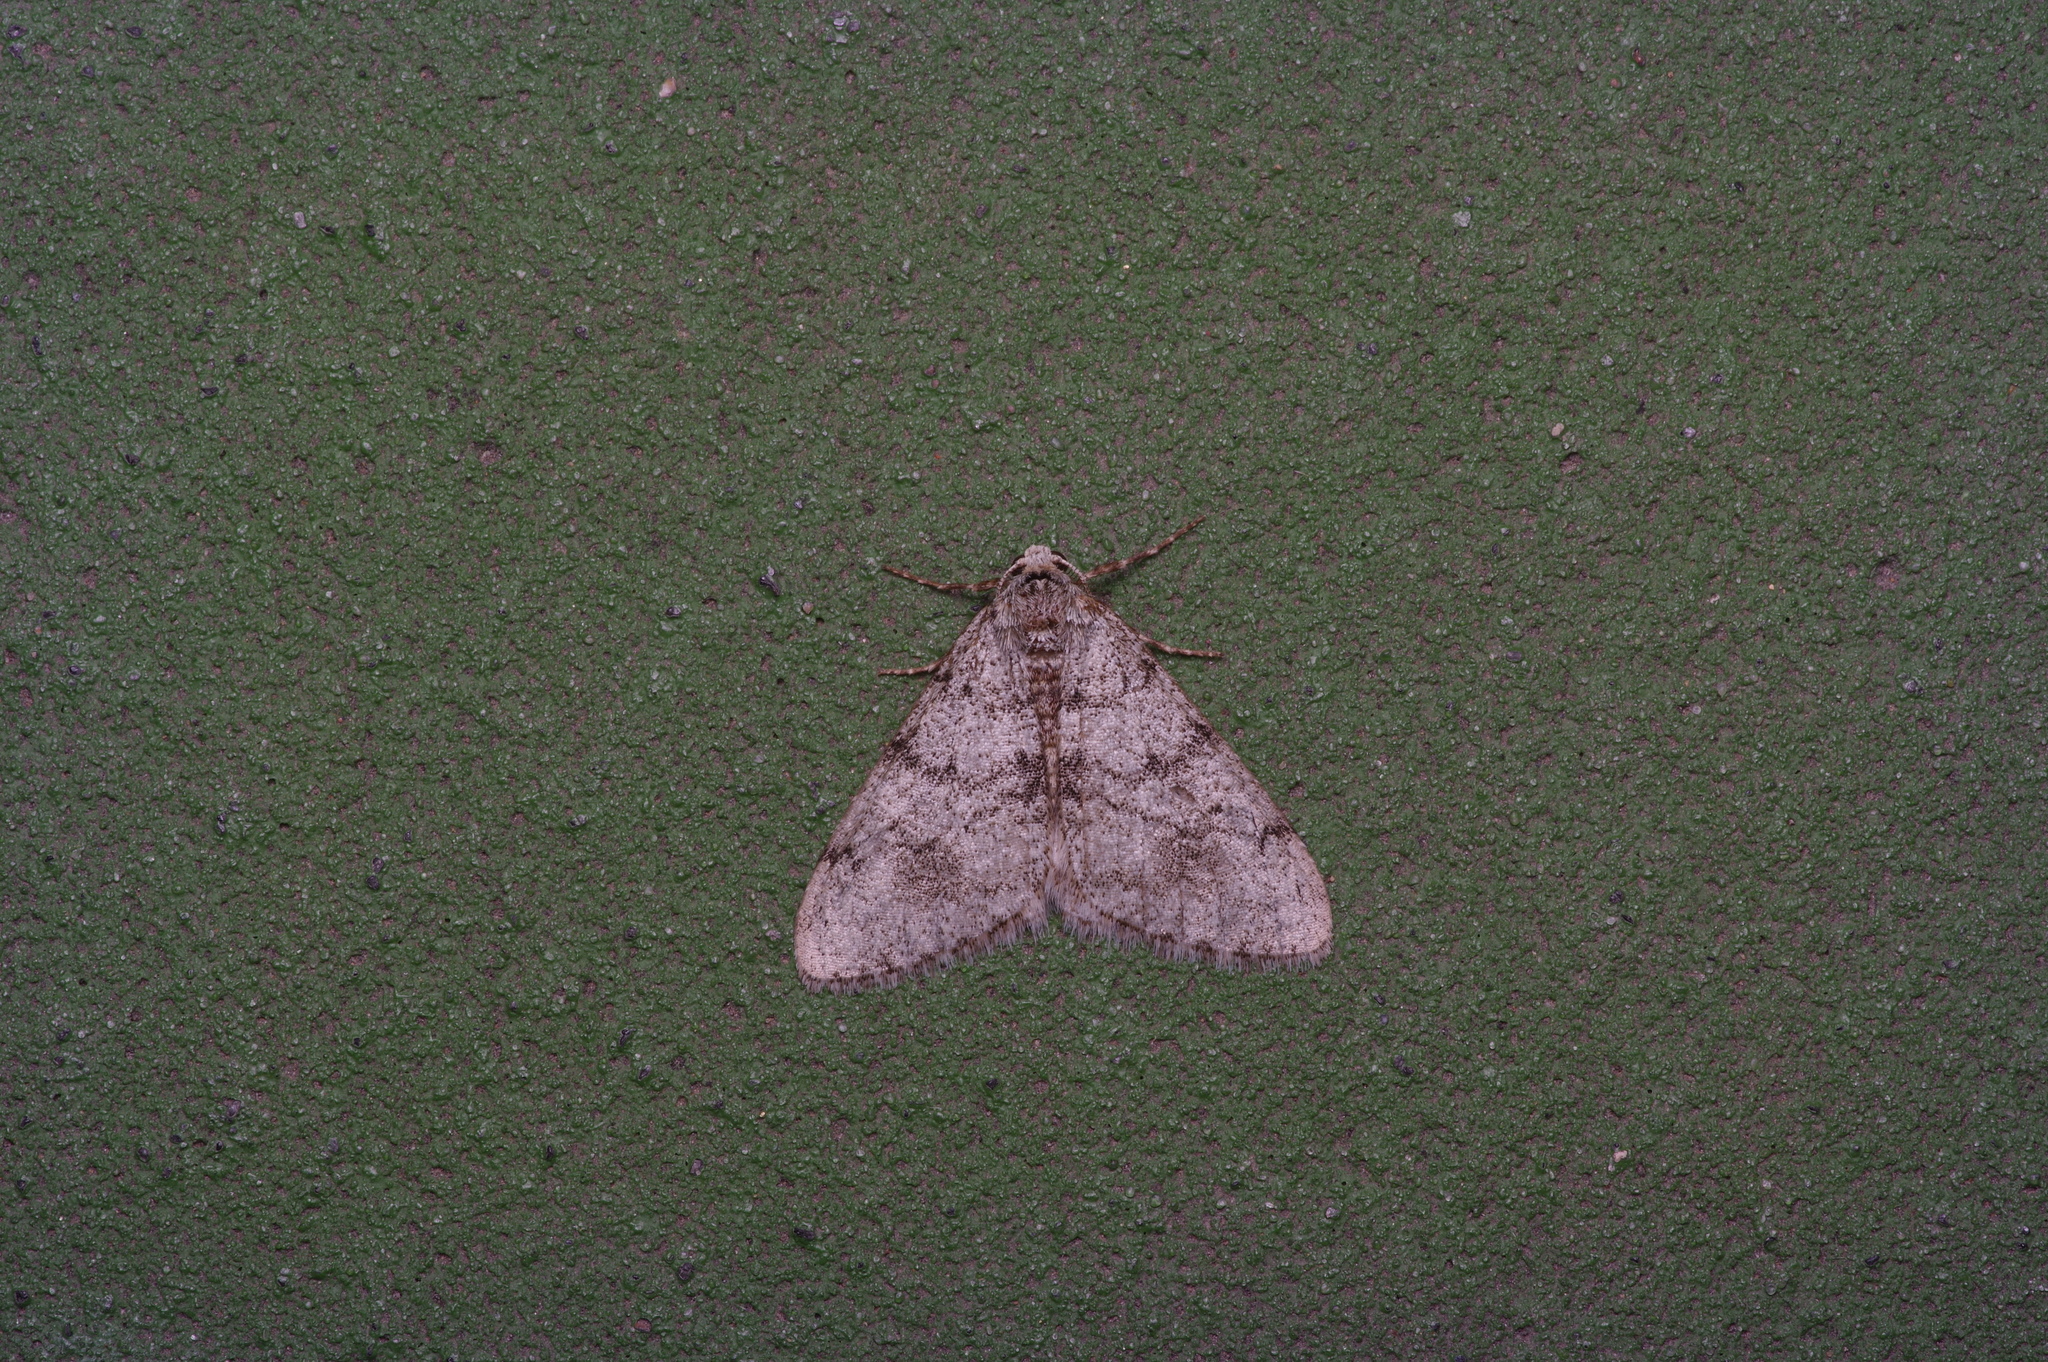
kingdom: Animalia
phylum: Arthropoda
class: Insecta
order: Lepidoptera
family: Geometridae
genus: Phigalia
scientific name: Phigalia strigataria
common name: Small phigalia
